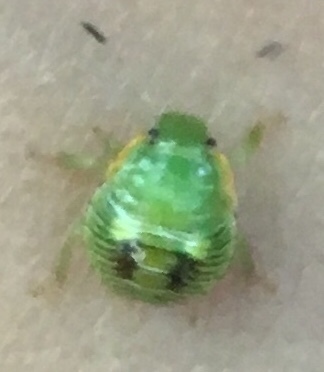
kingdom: Animalia
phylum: Arthropoda
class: Insecta
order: Hemiptera
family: Pentatomidae
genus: Chinavia
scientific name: Chinavia hilaris
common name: Green stink bug
